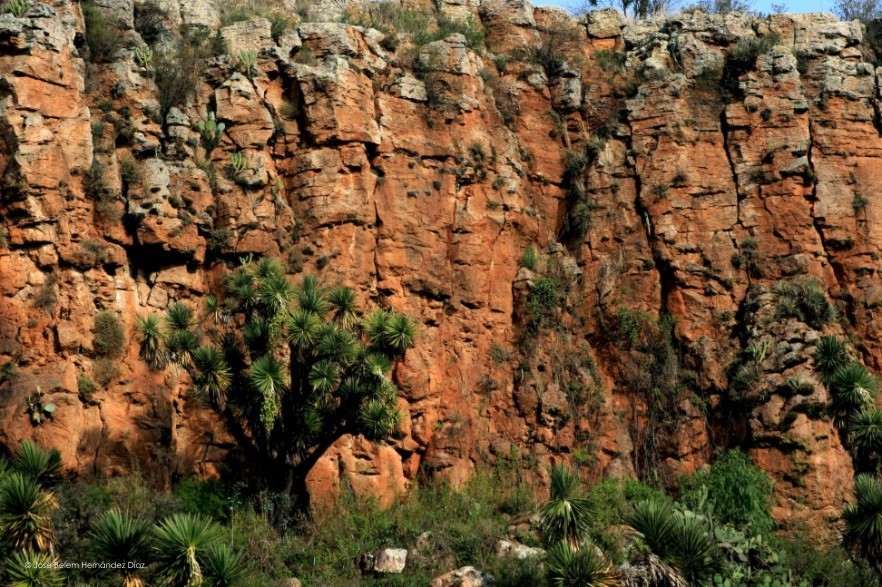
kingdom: Plantae
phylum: Tracheophyta
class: Liliopsida
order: Asparagales
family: Asparagaceae
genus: Yucca
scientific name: Yucca filifera
